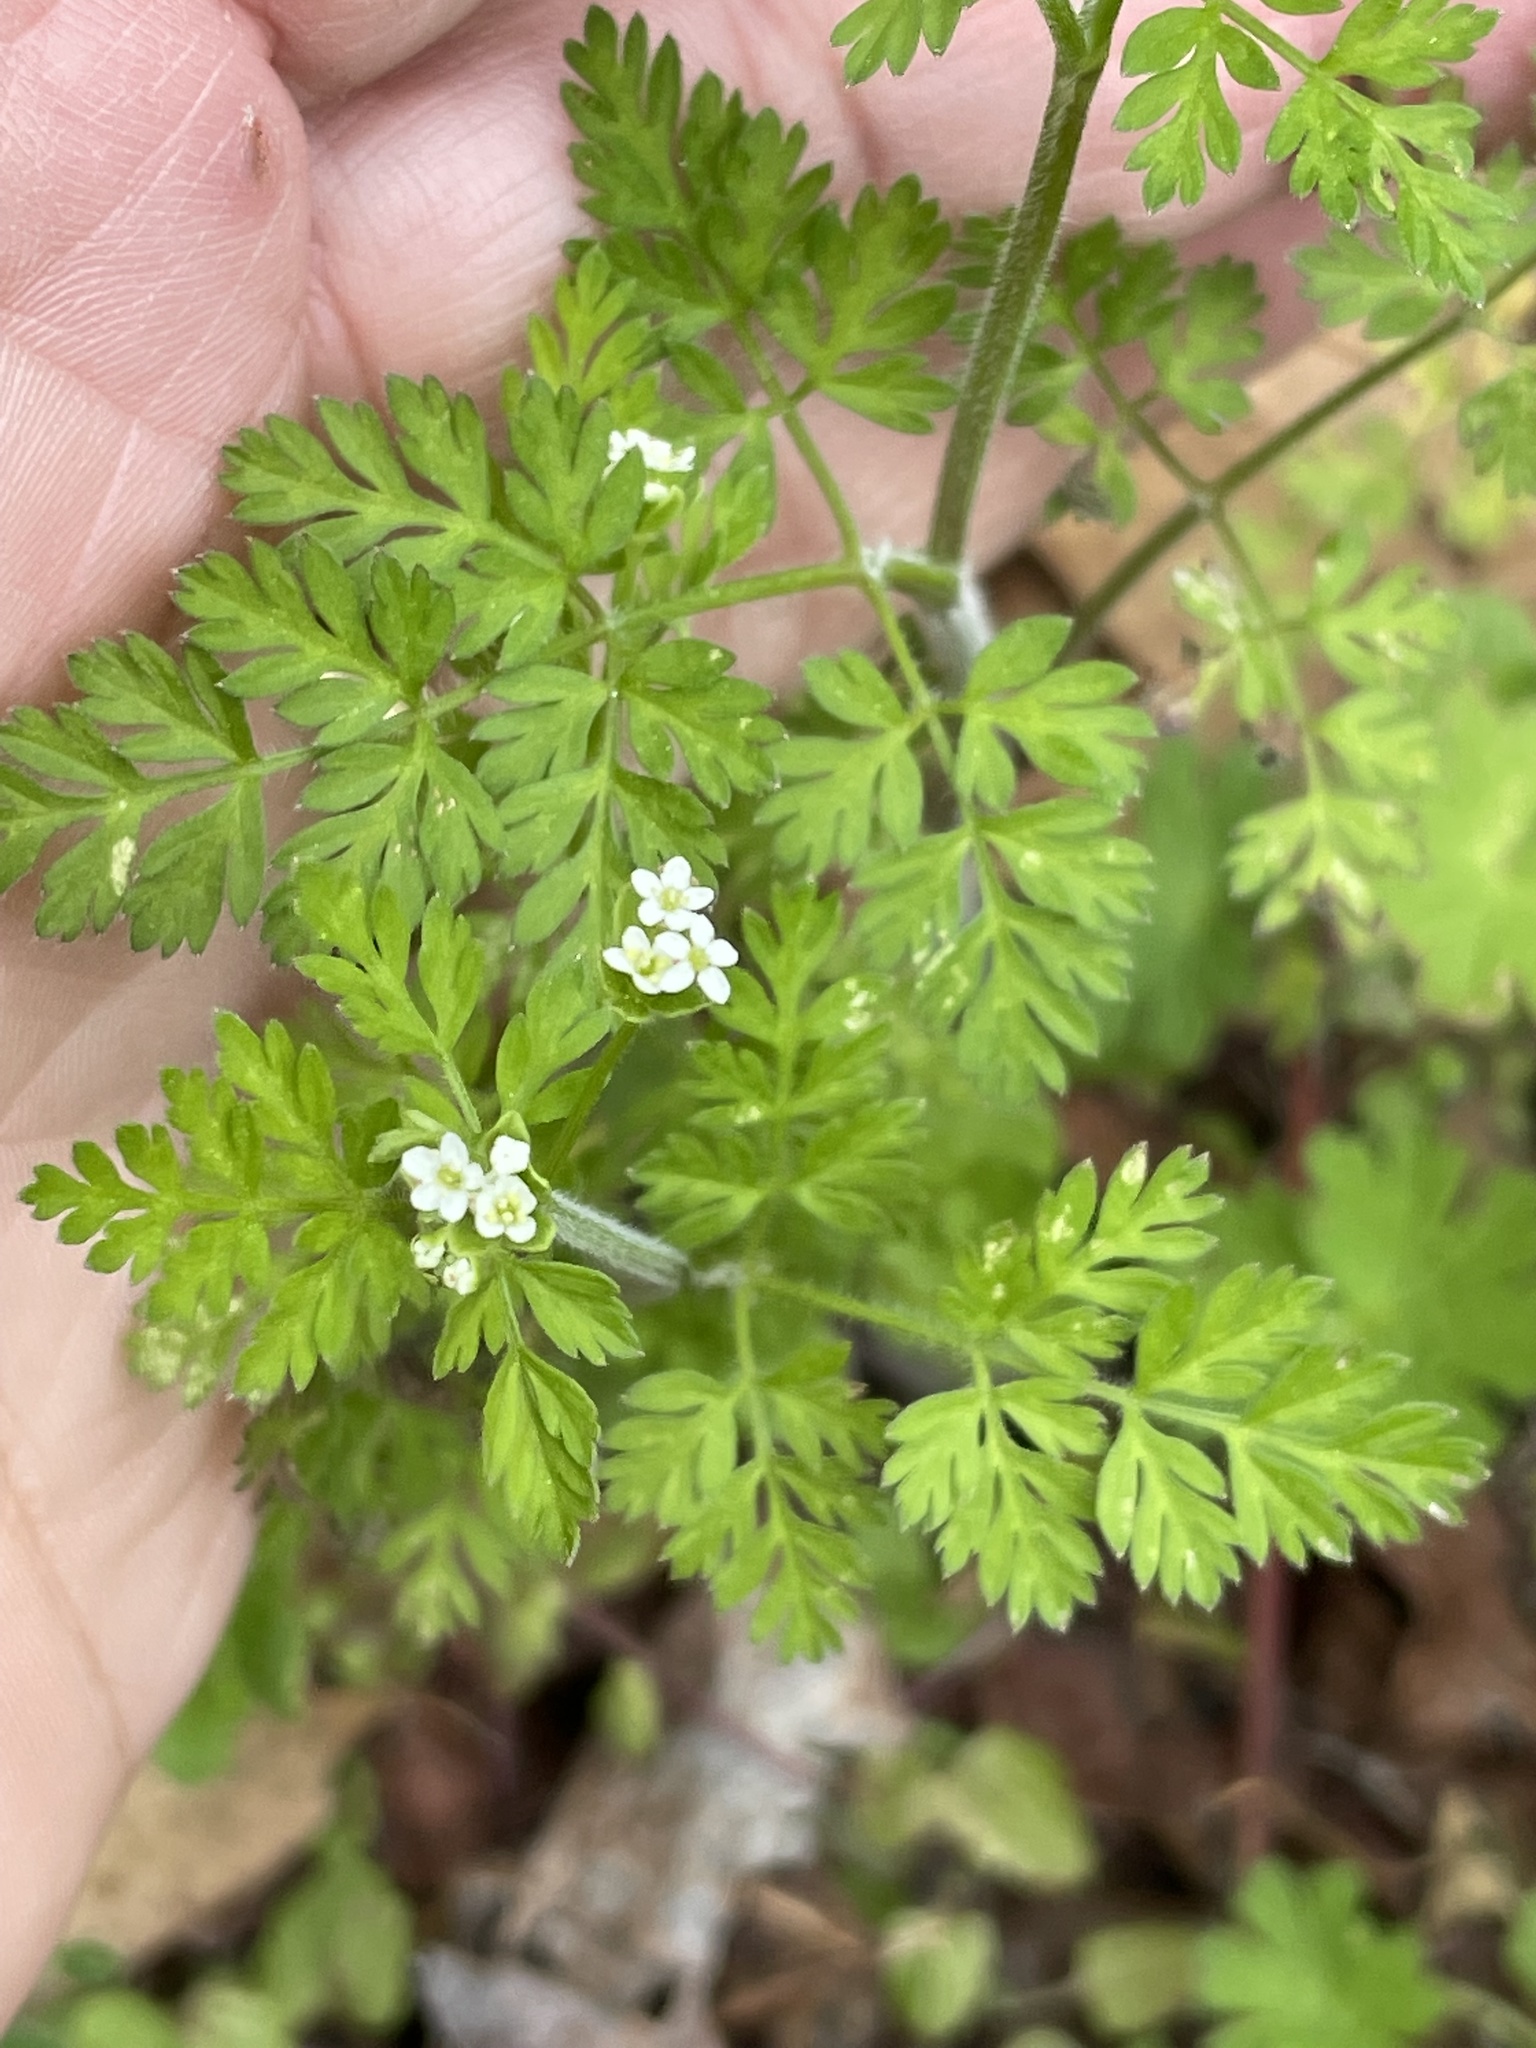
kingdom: Plantae
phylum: Tracheophyta
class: Magnoliopsida
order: Apiales
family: Apiaceae
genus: Chaerophyllum
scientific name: Chaerophyllum tainturieri
